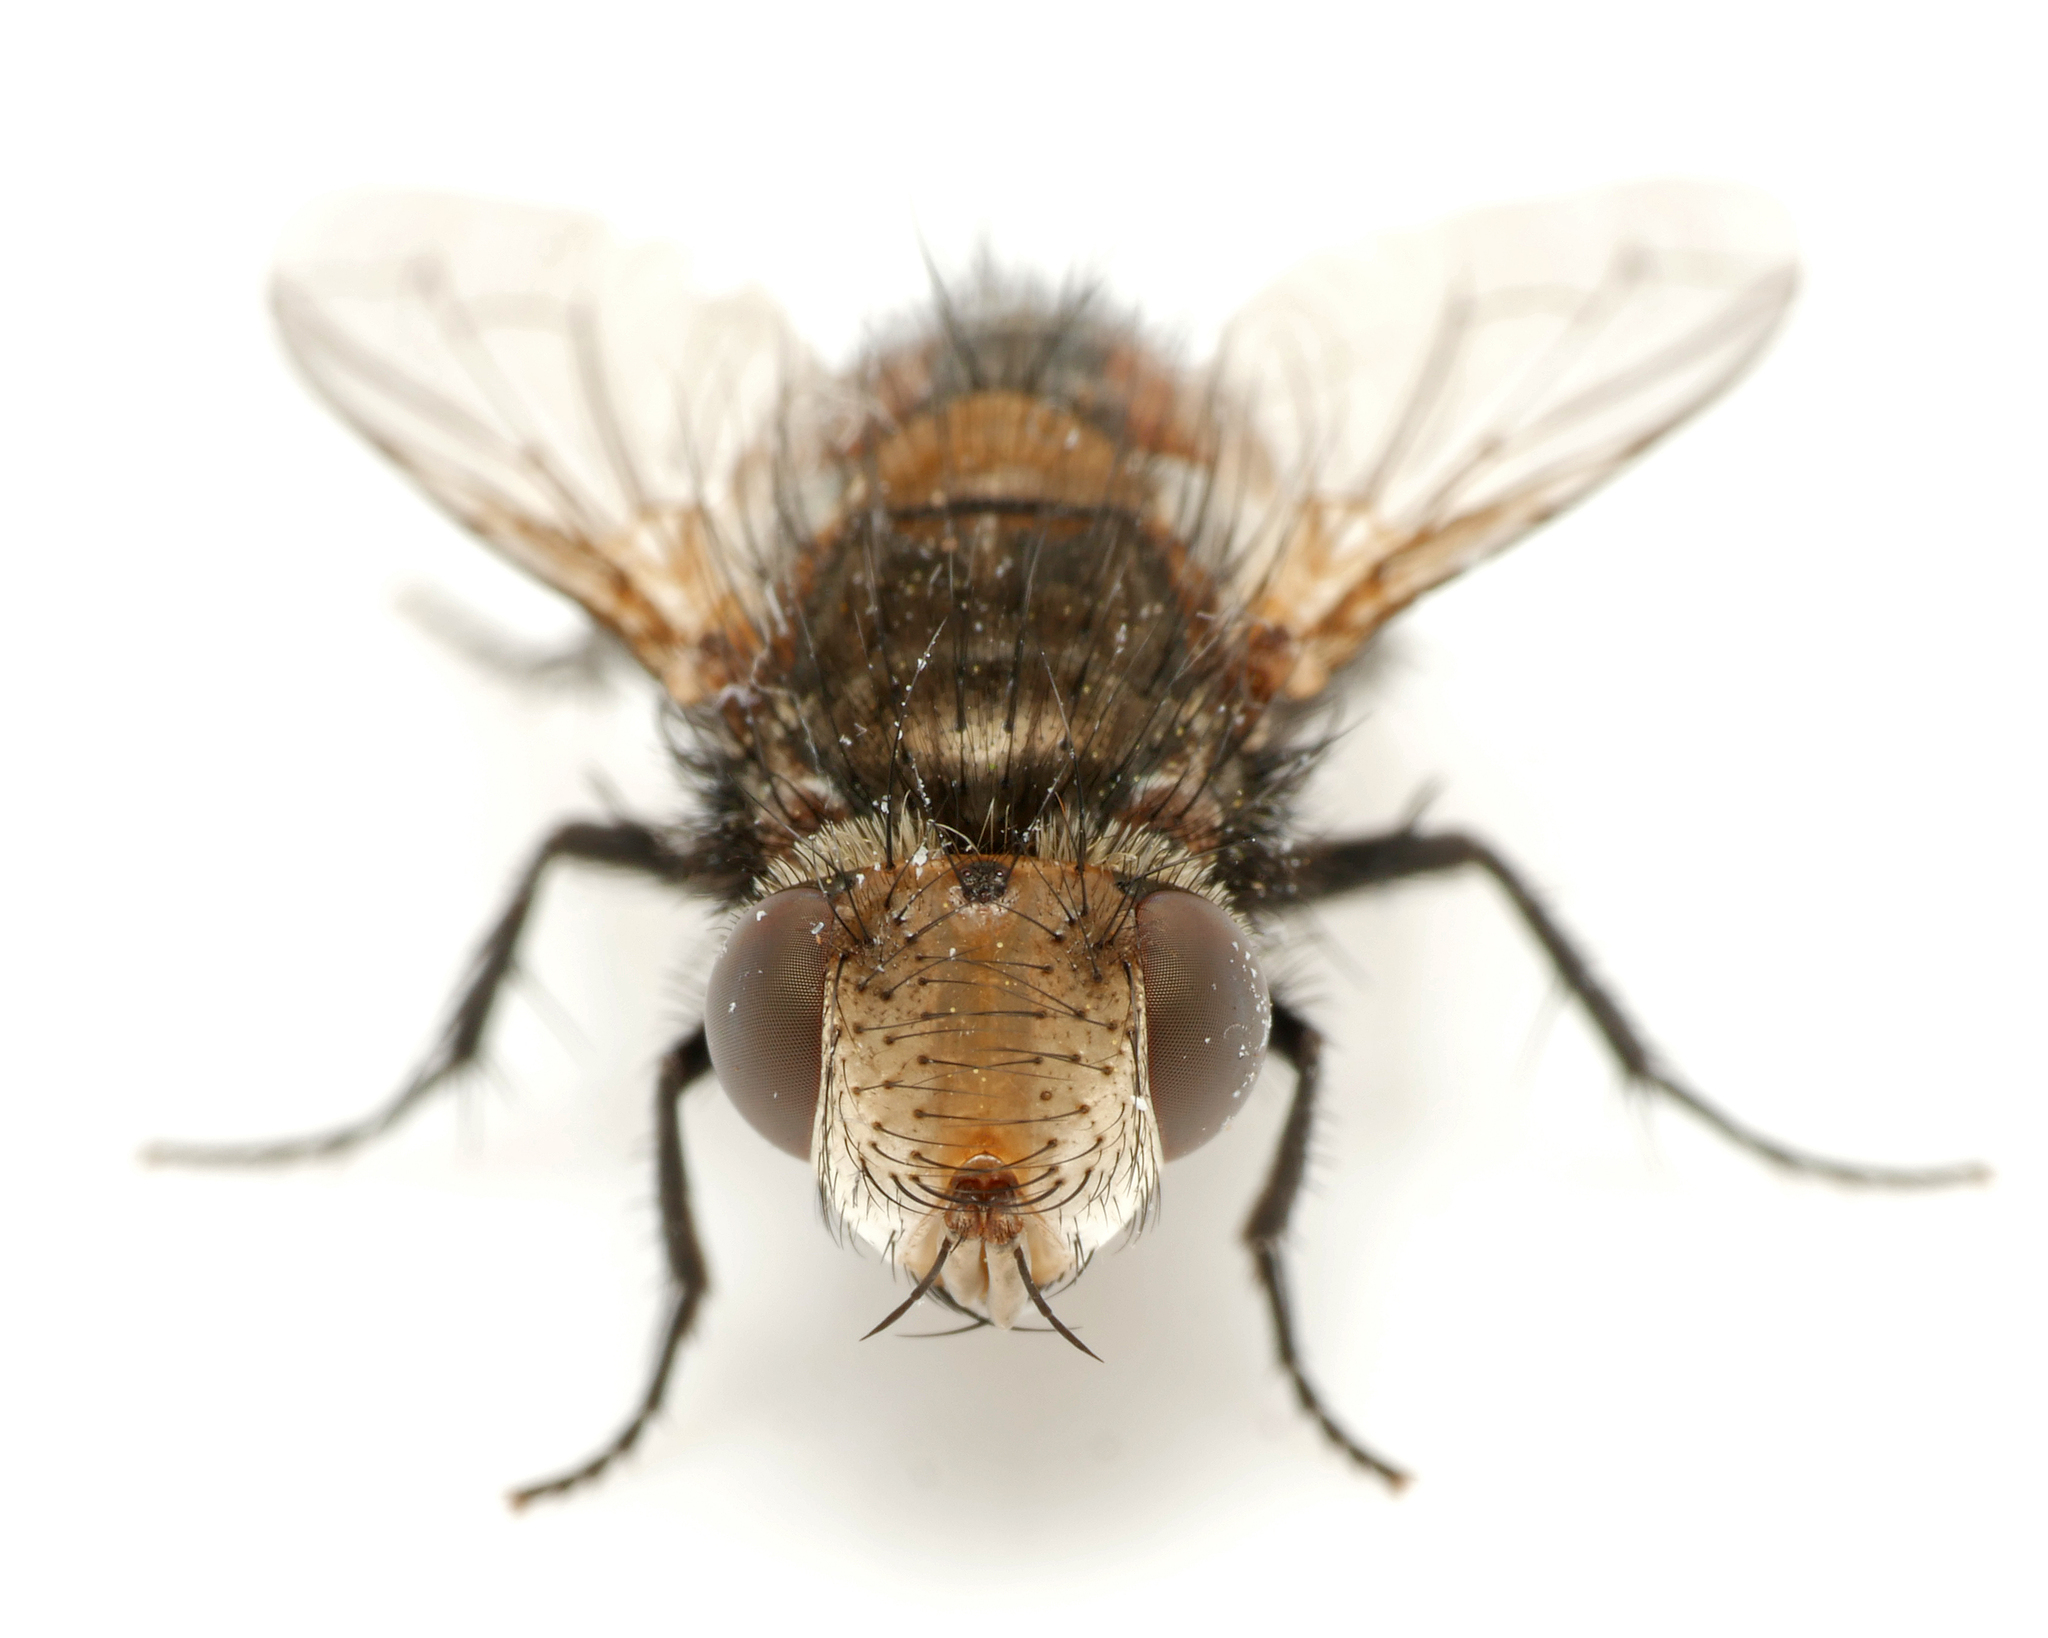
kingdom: Animalia
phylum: Arthropoda
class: Insecta
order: Diptera
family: Tachinidae
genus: Gonia
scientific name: Gonia ornata
